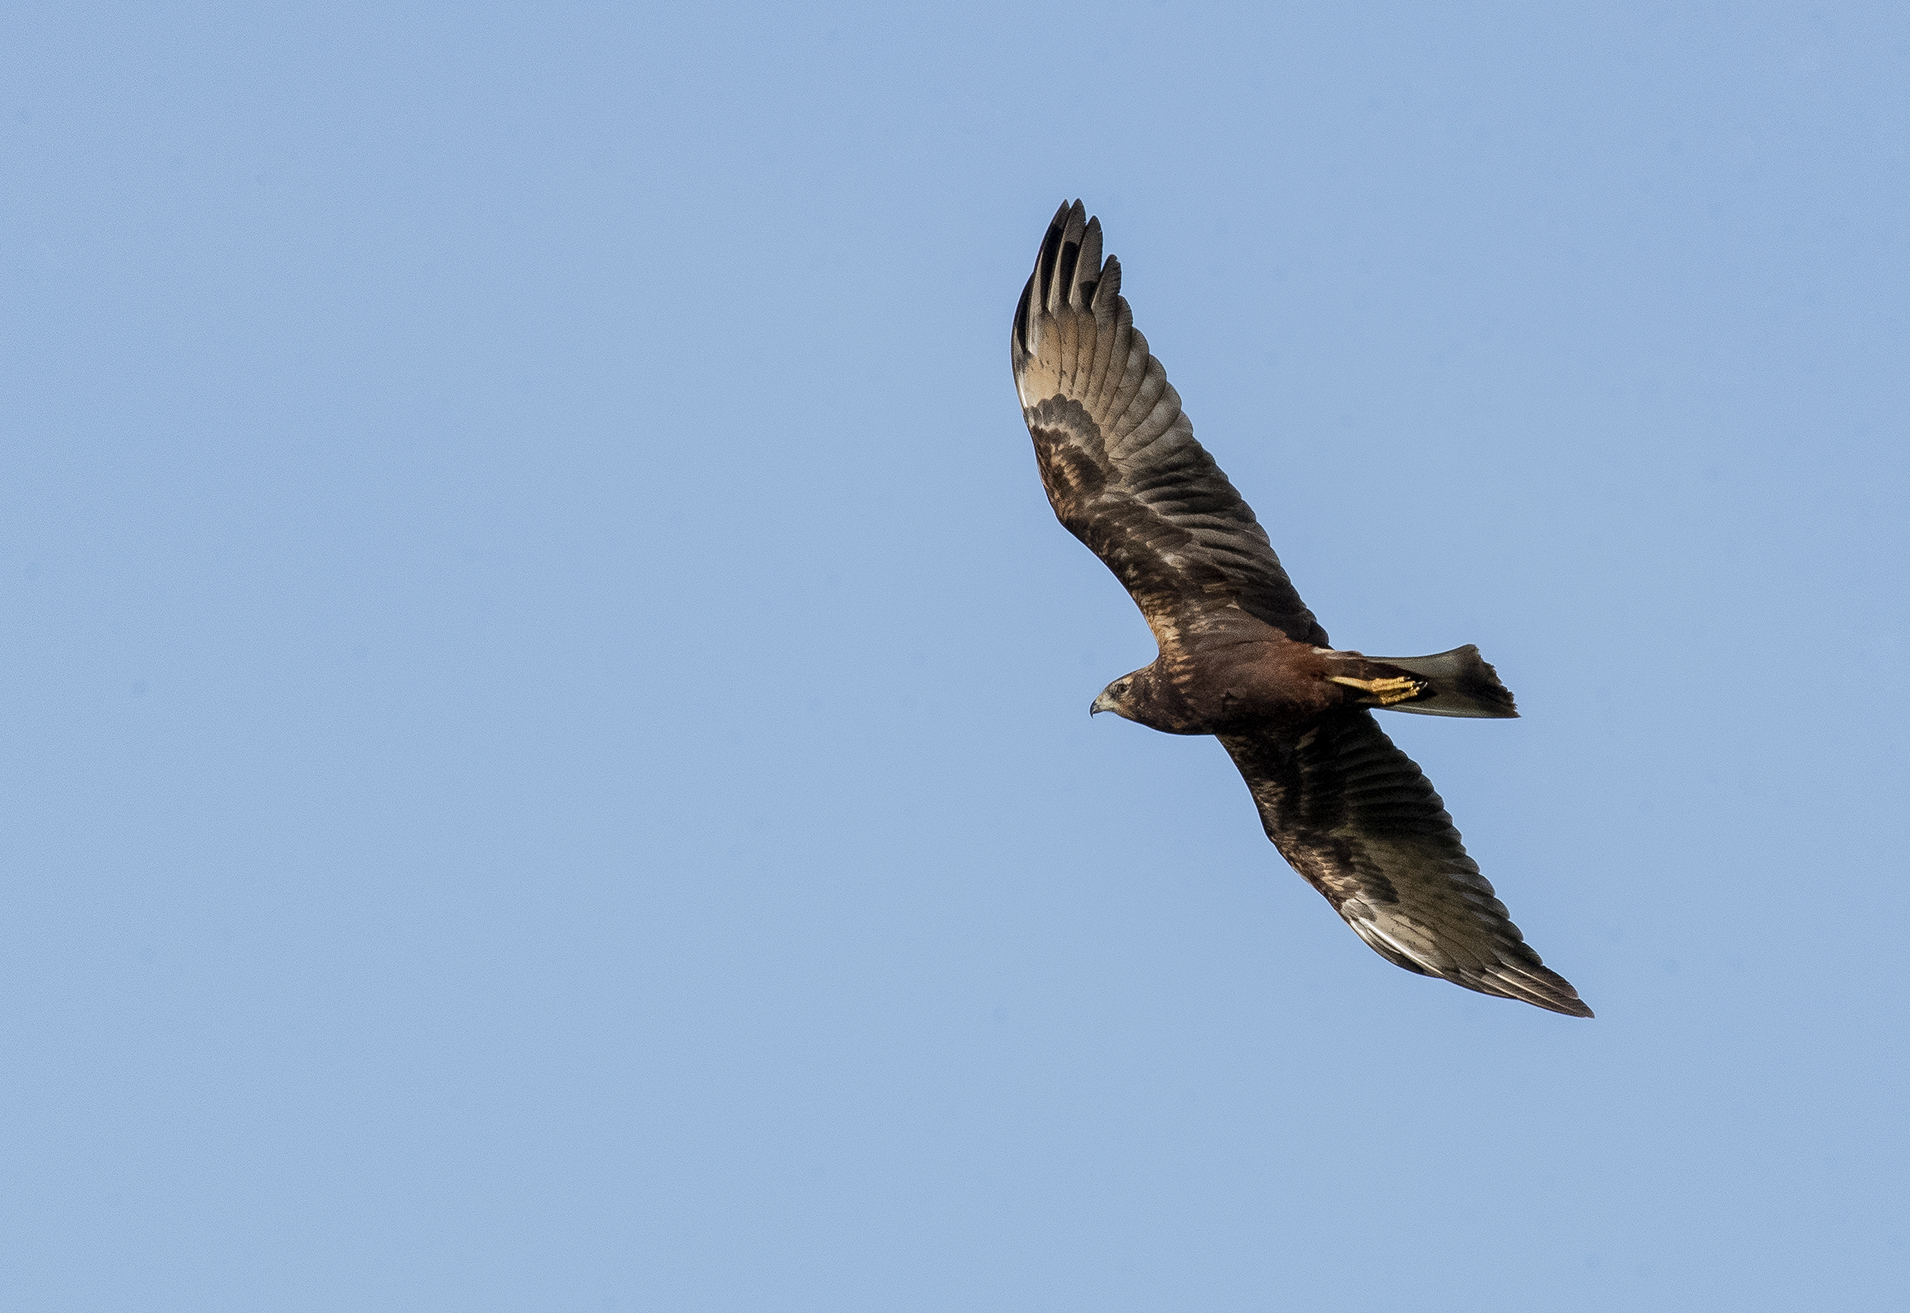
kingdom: Animalia
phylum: Chordata
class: Aves
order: Accipitriformes
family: Accipitridae
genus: Circus
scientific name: Circus spilonotus
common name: Eastern marsh-harrier
